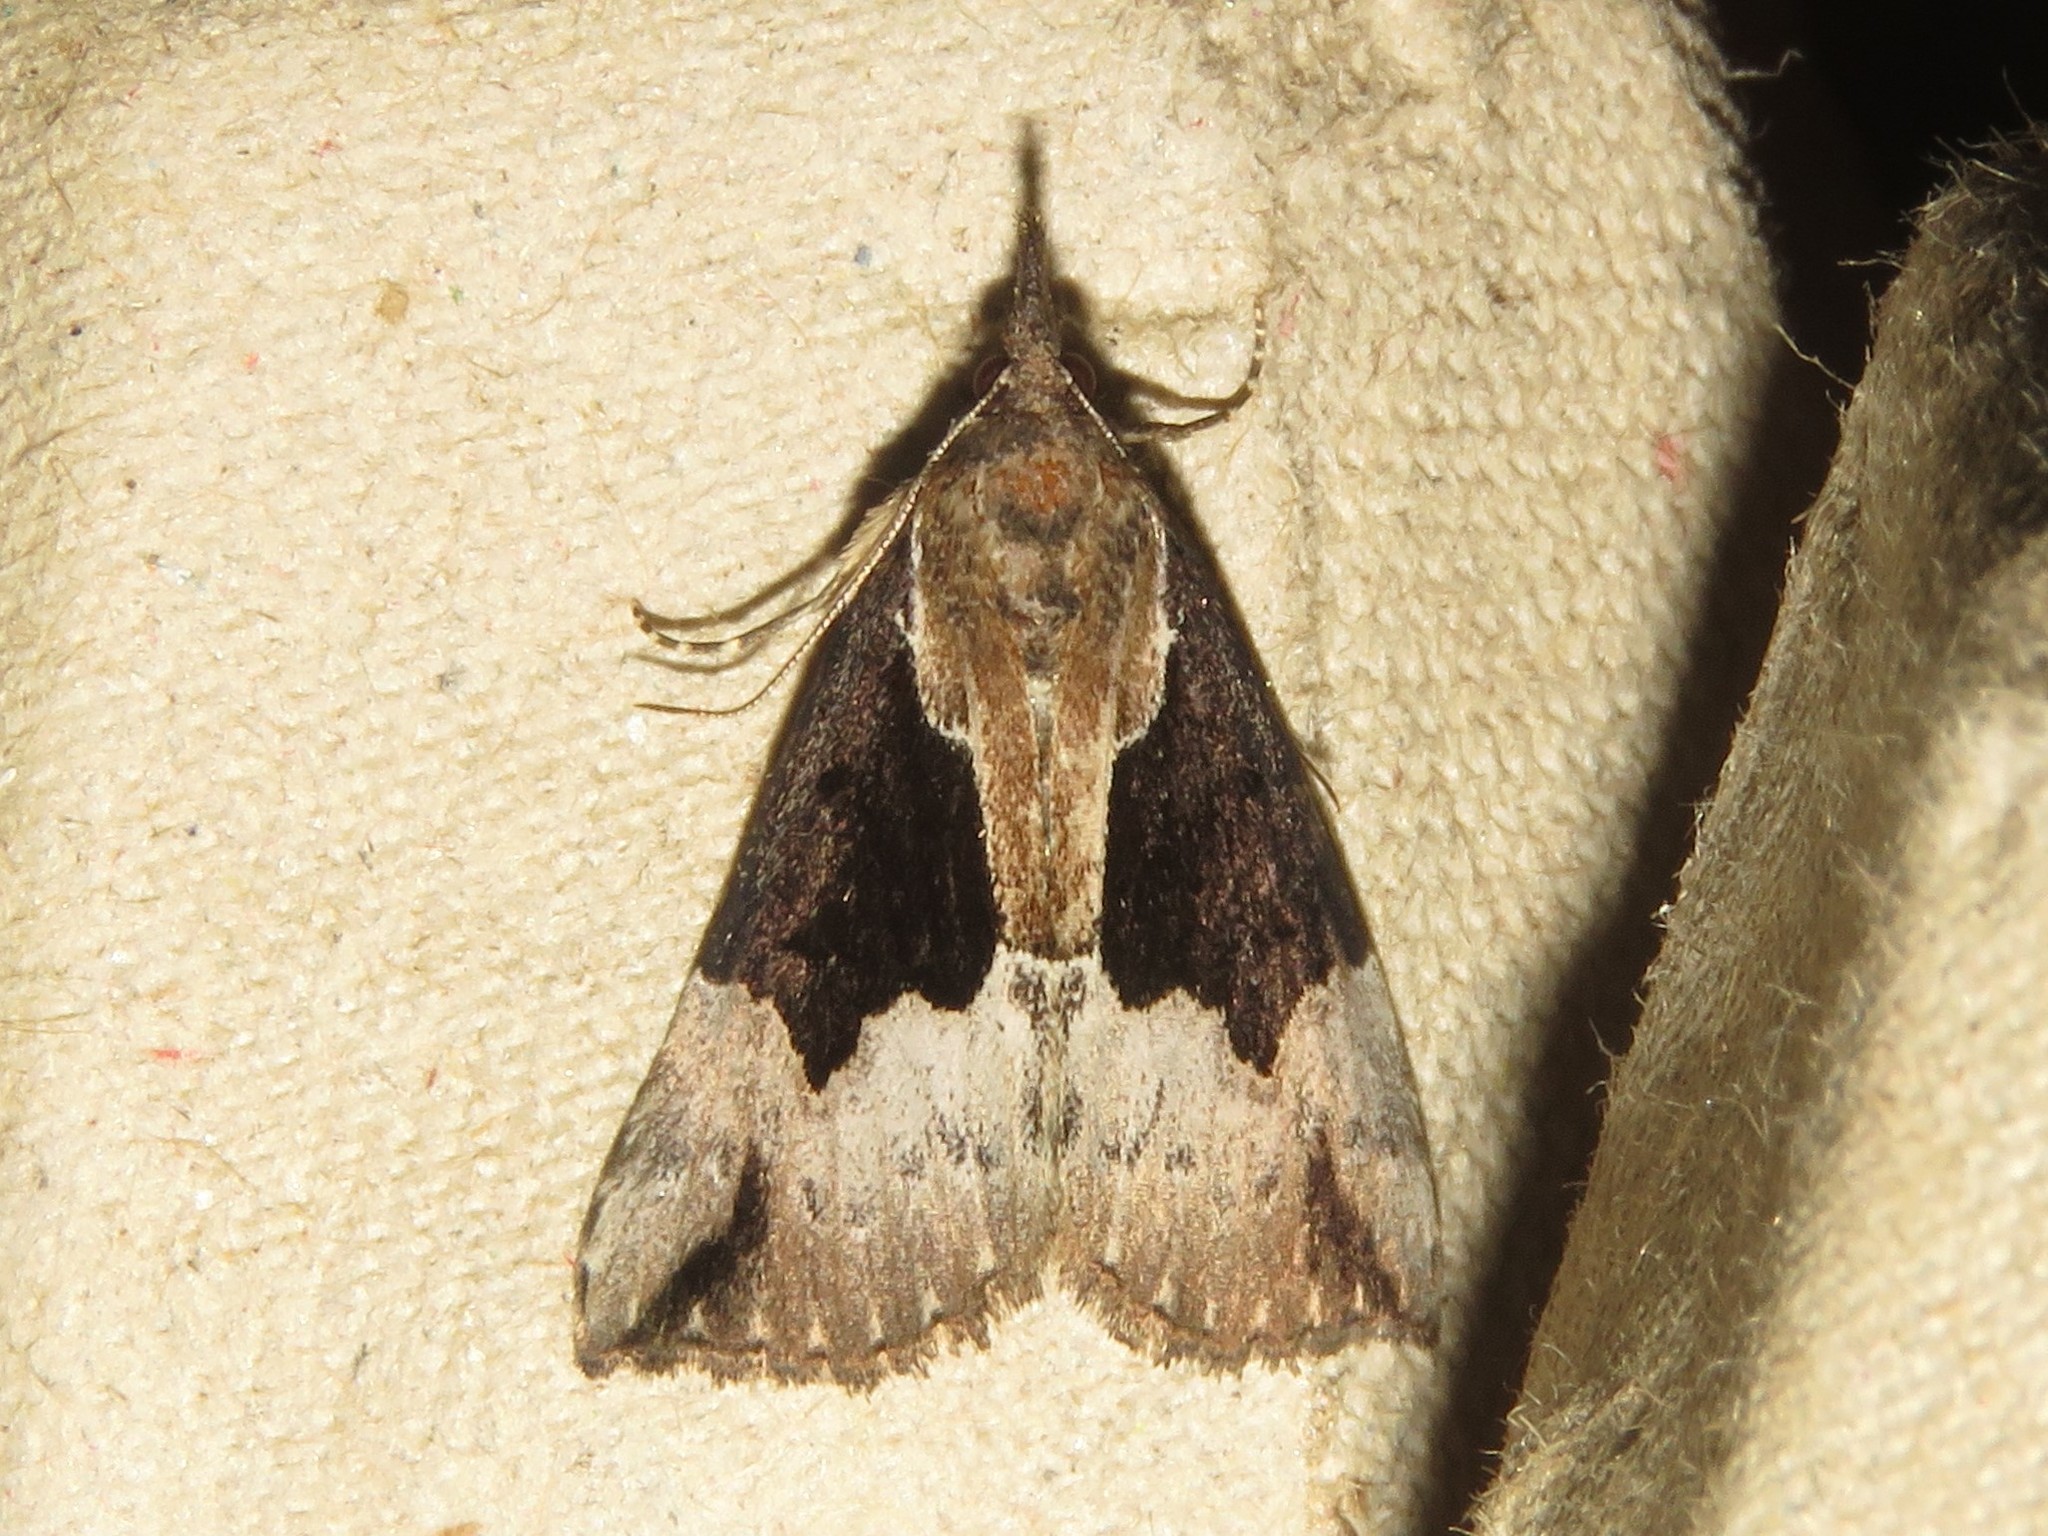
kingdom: Animalia
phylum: Arthropoda
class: Insecta
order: Lepidoptera
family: Erebidae
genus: Hypena
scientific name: Hypena bijugalis
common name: Dimorphic bomolocha moth
